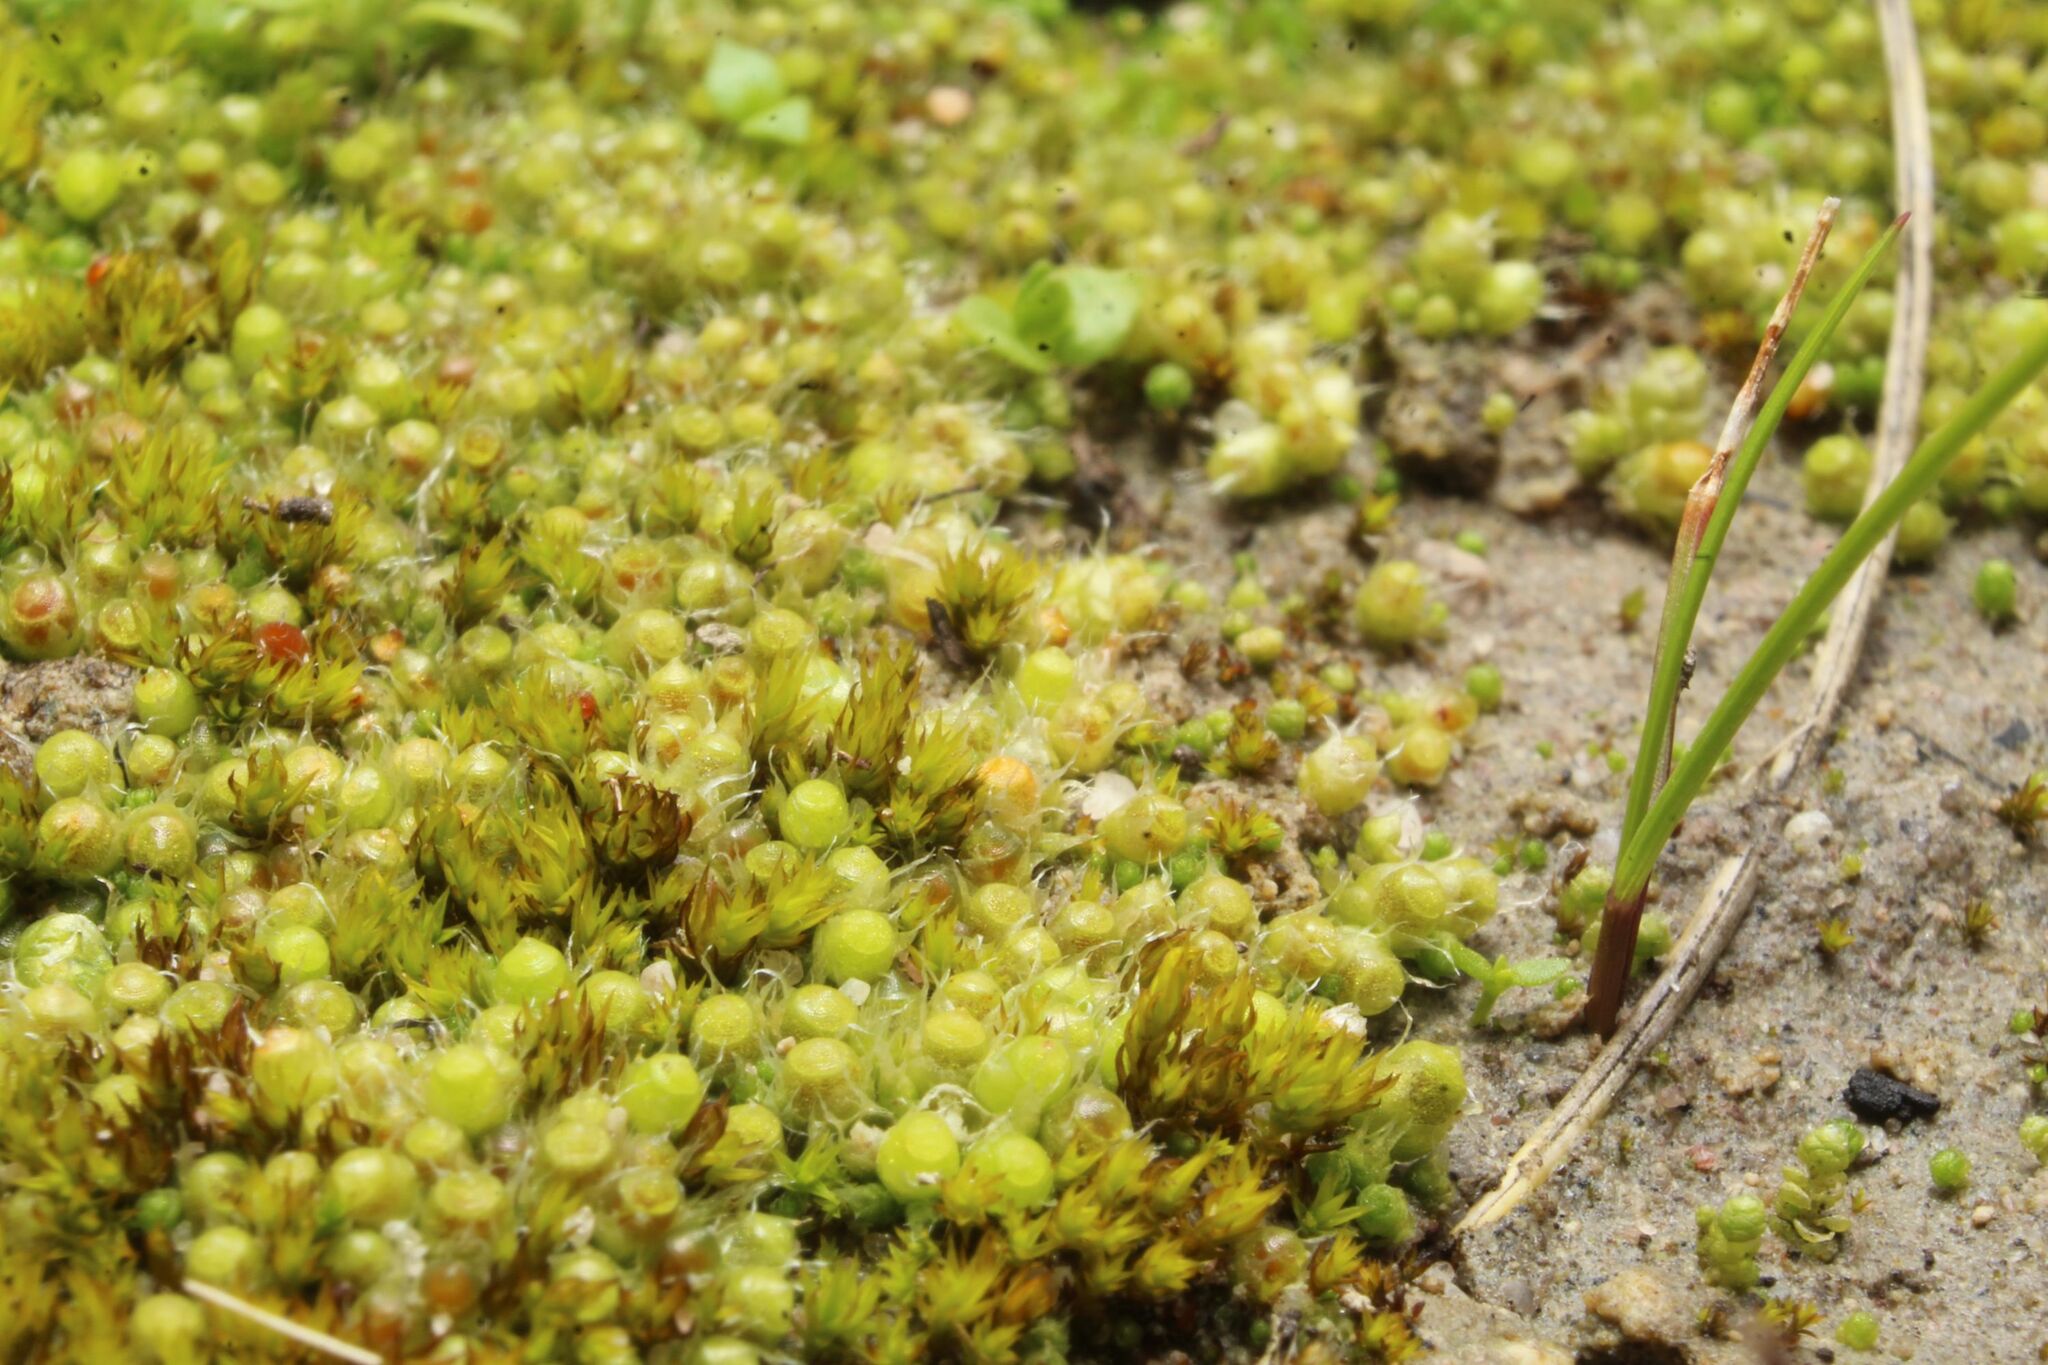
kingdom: Plantae
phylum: Bryophyta
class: Bryopsida
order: Gigaspermales
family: Gigaspermaceae
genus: Gigaspermum
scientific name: Gigaspermum repens
